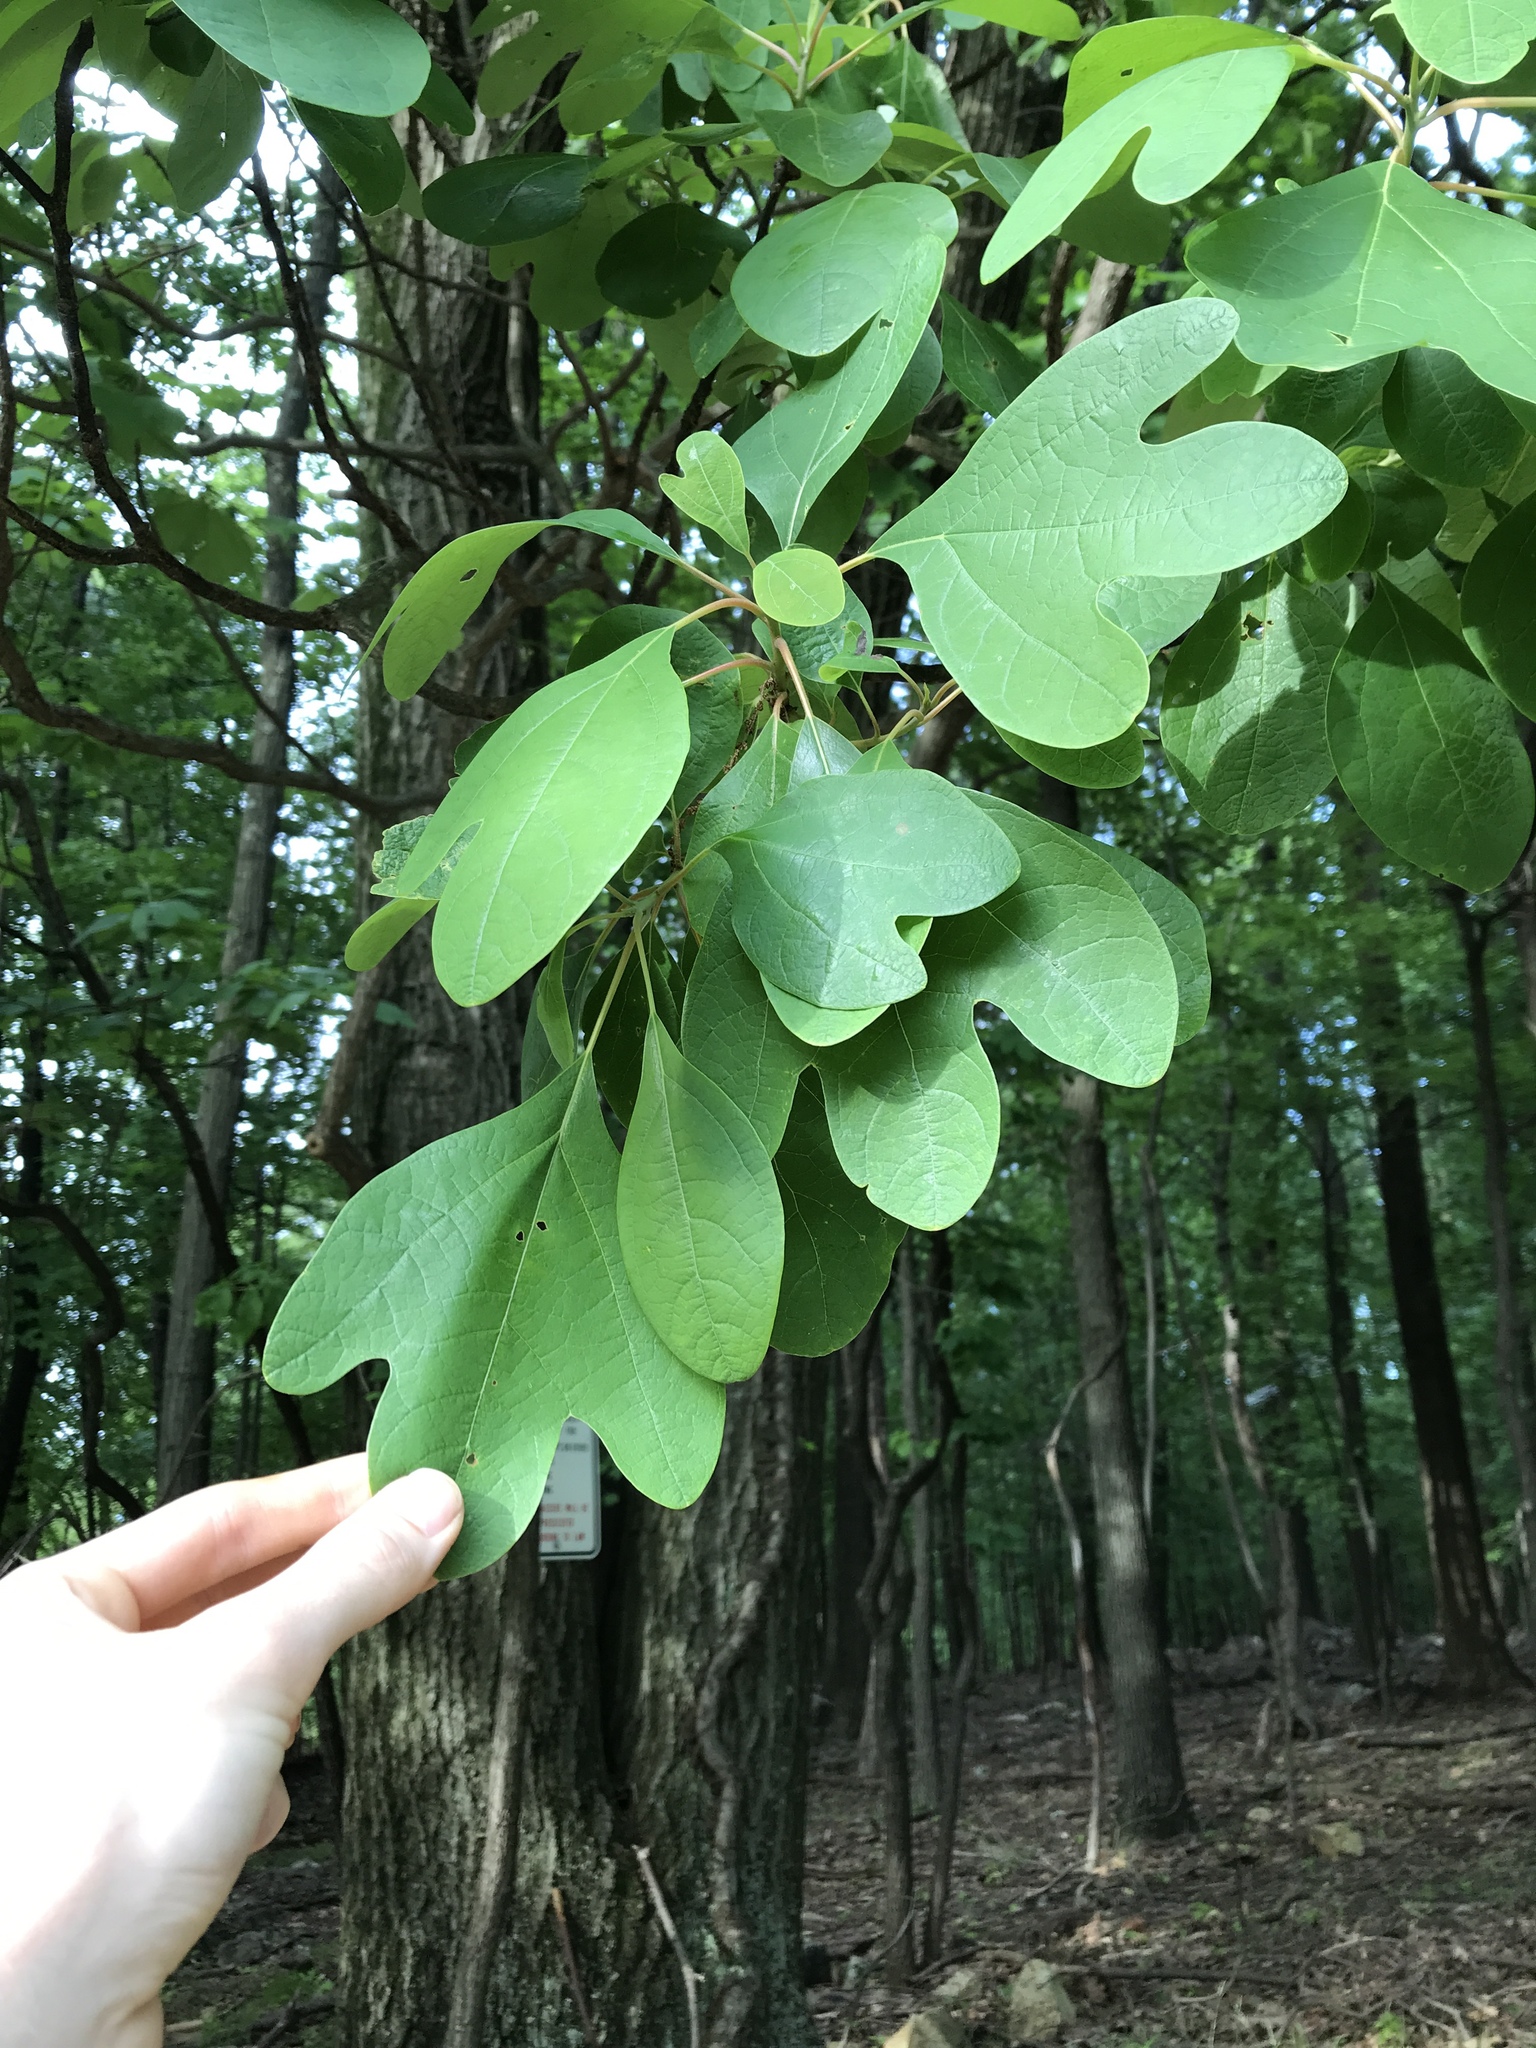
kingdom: Plantae
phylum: Tracheophyta
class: Magnoliopsida
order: Laurales
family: Lauraceae
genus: Sassafras
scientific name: Sassafras albidum
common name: Sassafras
